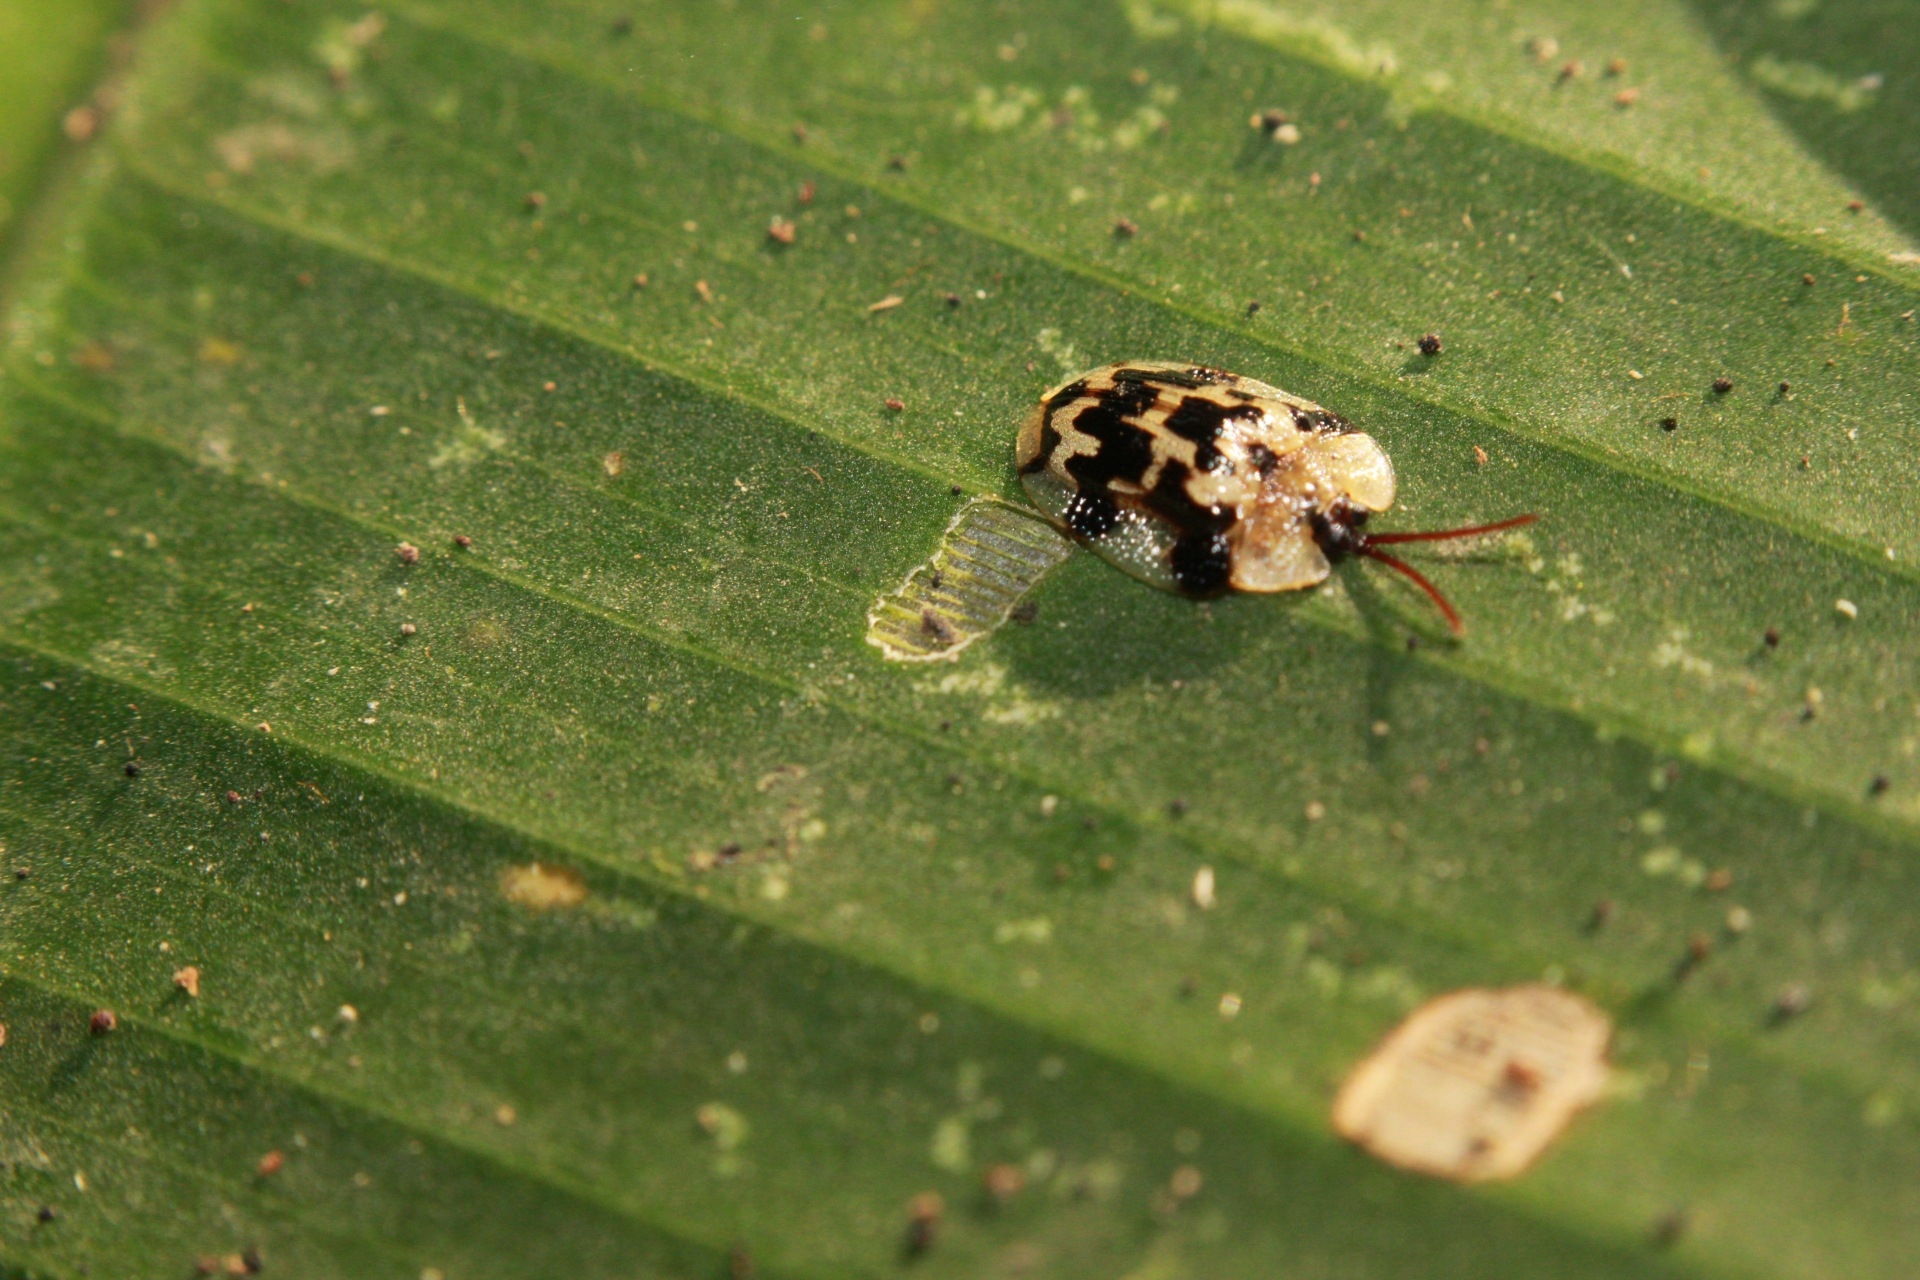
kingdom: Animalia
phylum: Arthropoda
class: Insecta
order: Coleoptera
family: Chrysomelidae
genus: Aslamidium
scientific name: Aslamidium bolivianum
